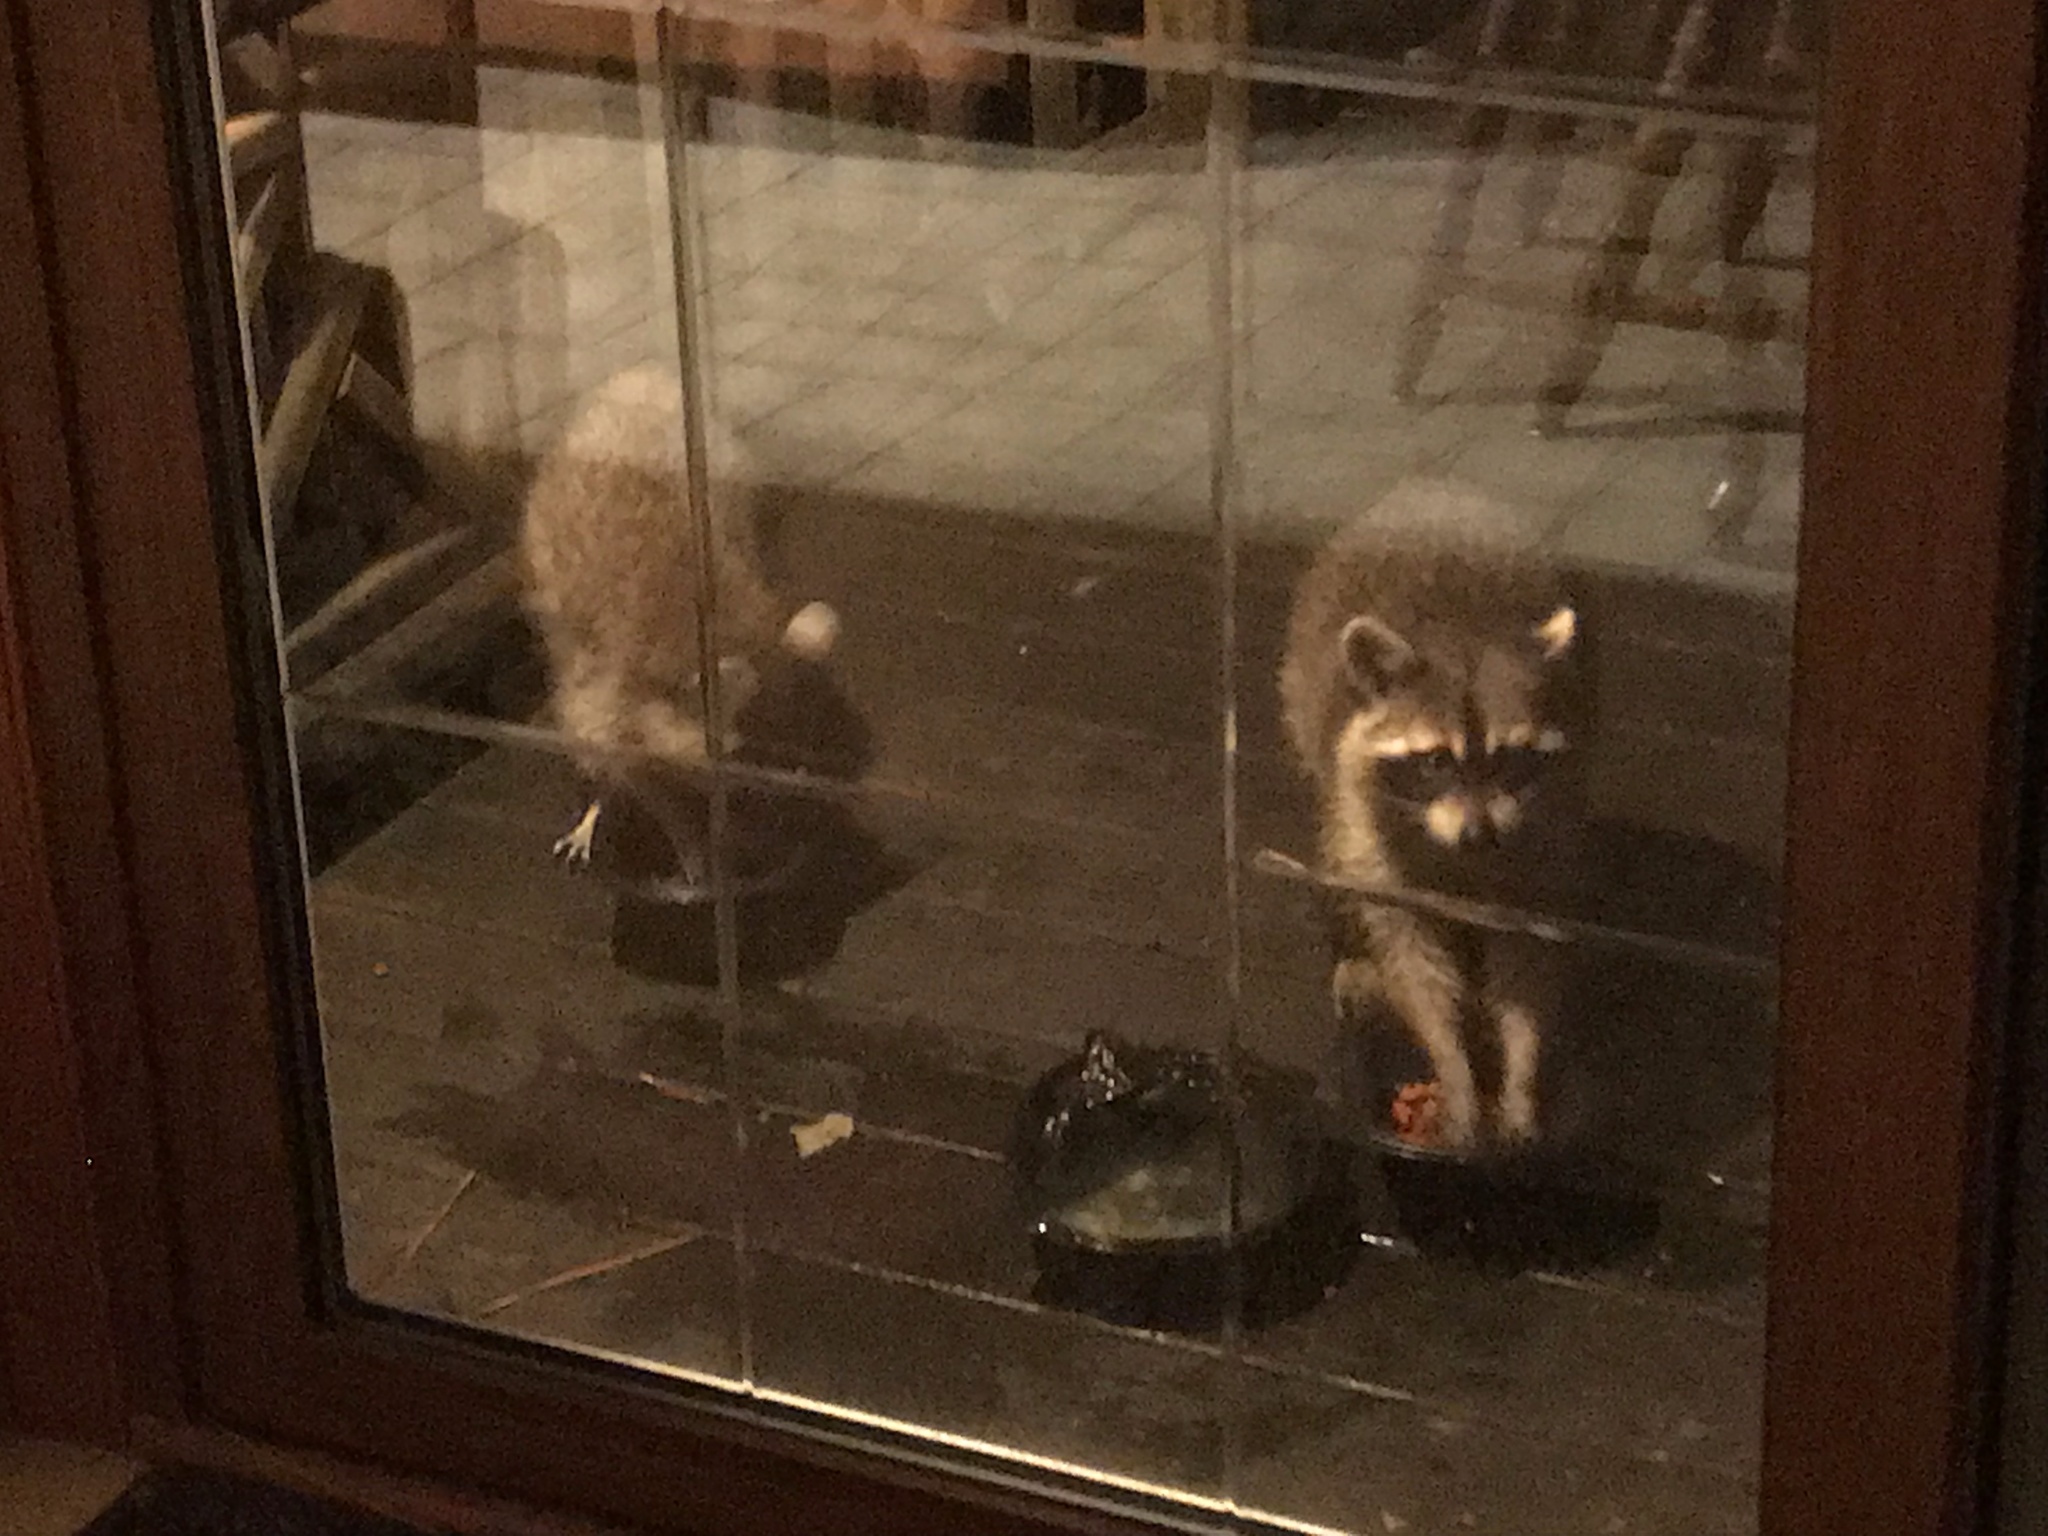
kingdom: Animalia
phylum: Chordata
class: Mammalia
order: Carnivora
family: Procyonidae
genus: Procyon
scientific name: Procyon lotor
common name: Raccoon
